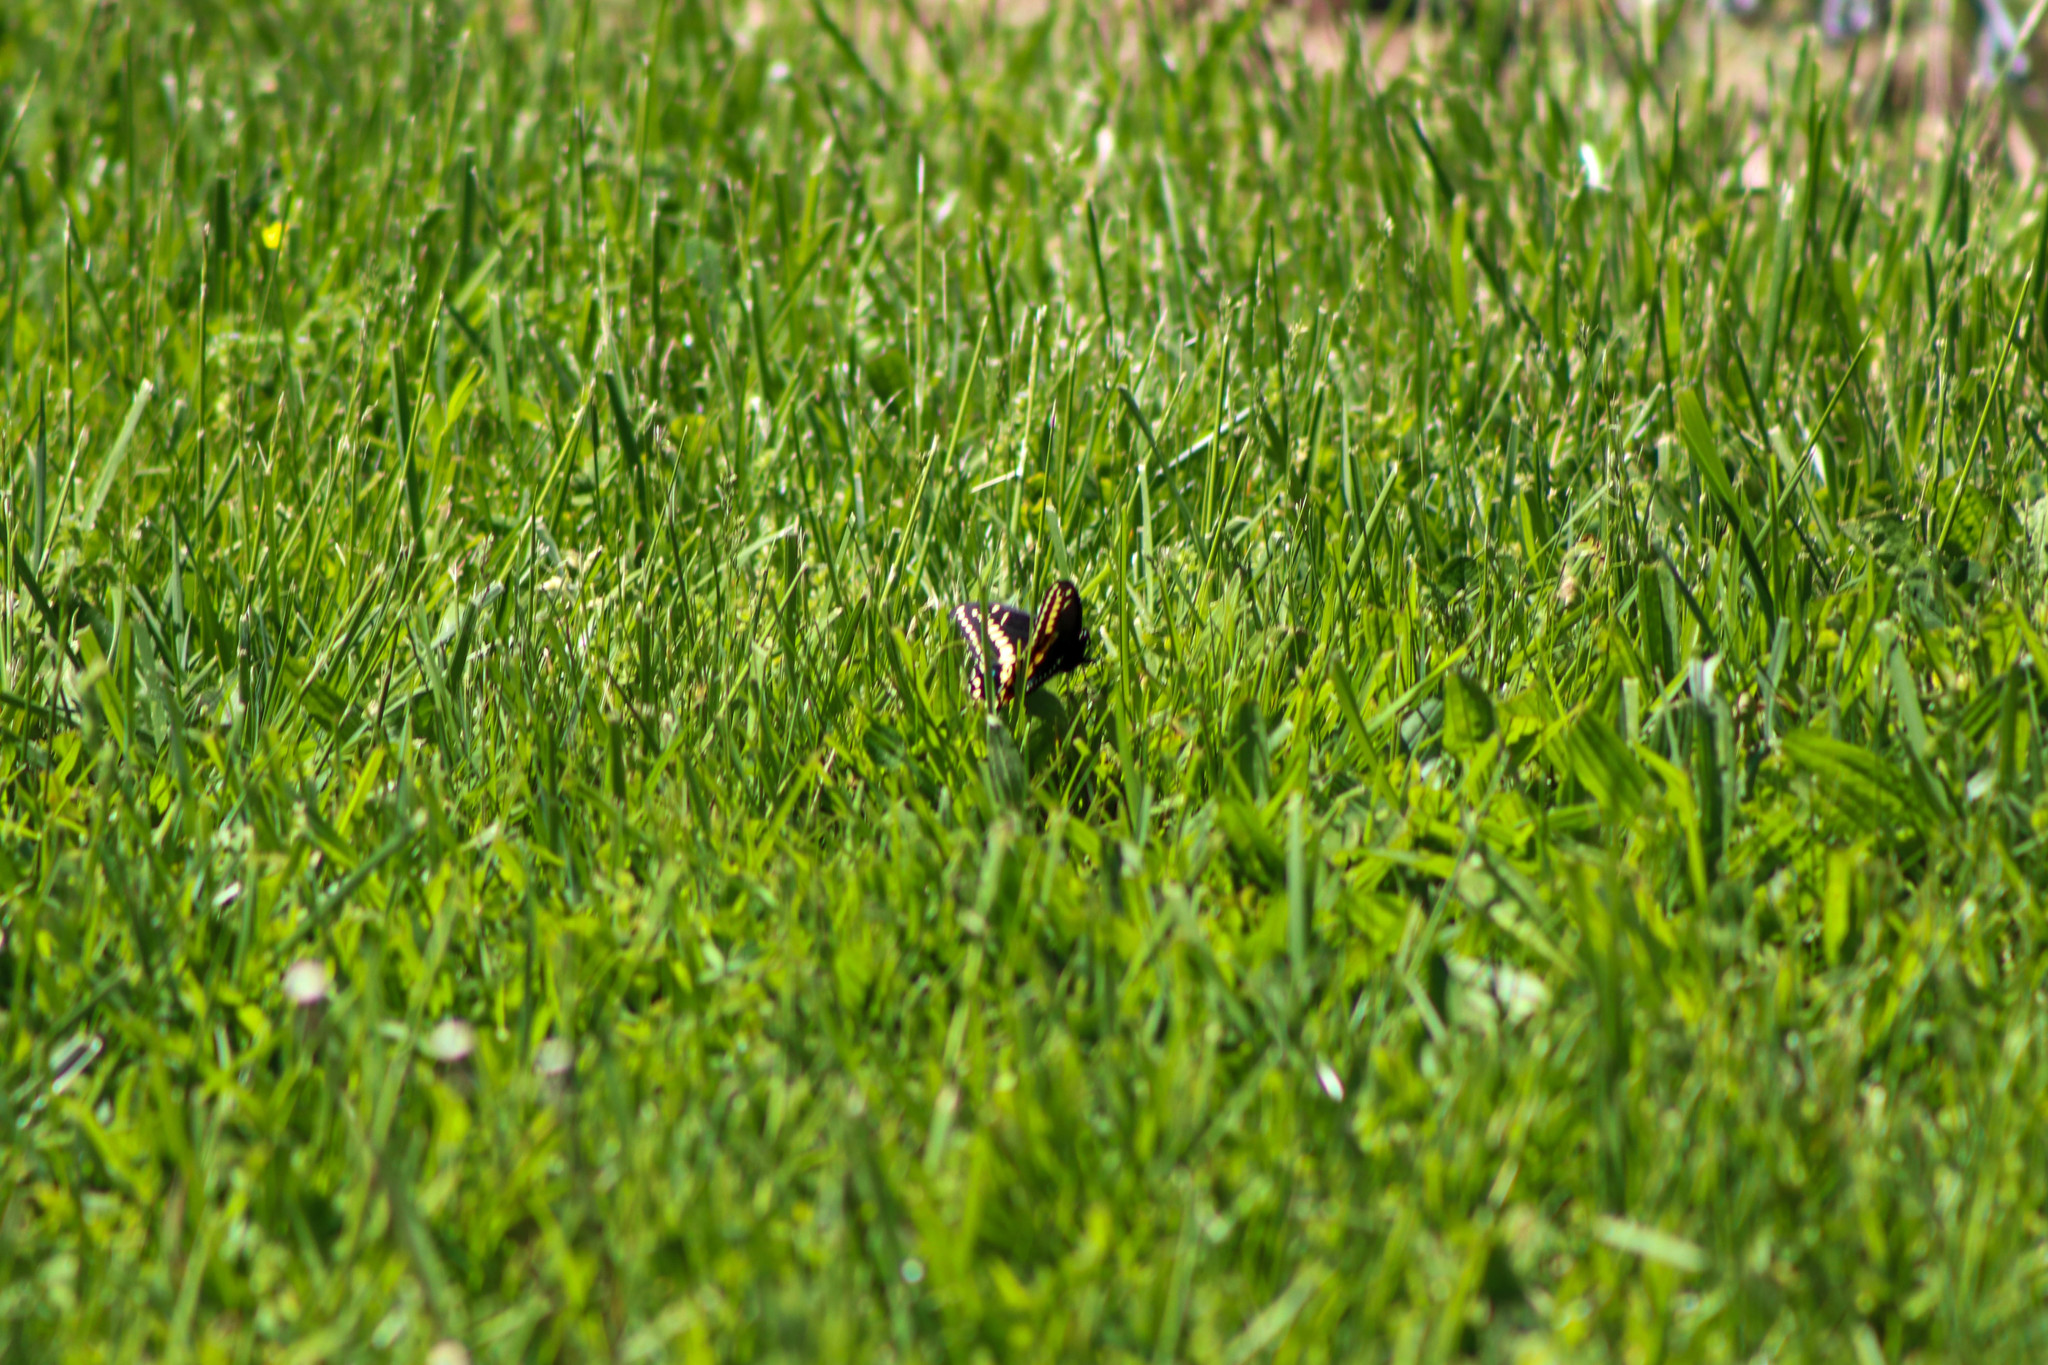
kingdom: Animalia
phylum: Arthropoda
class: Insecta
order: Lepidoptera
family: Papilionidae
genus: Papilio
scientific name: Papilio polyxenes
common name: Black swallowtail
